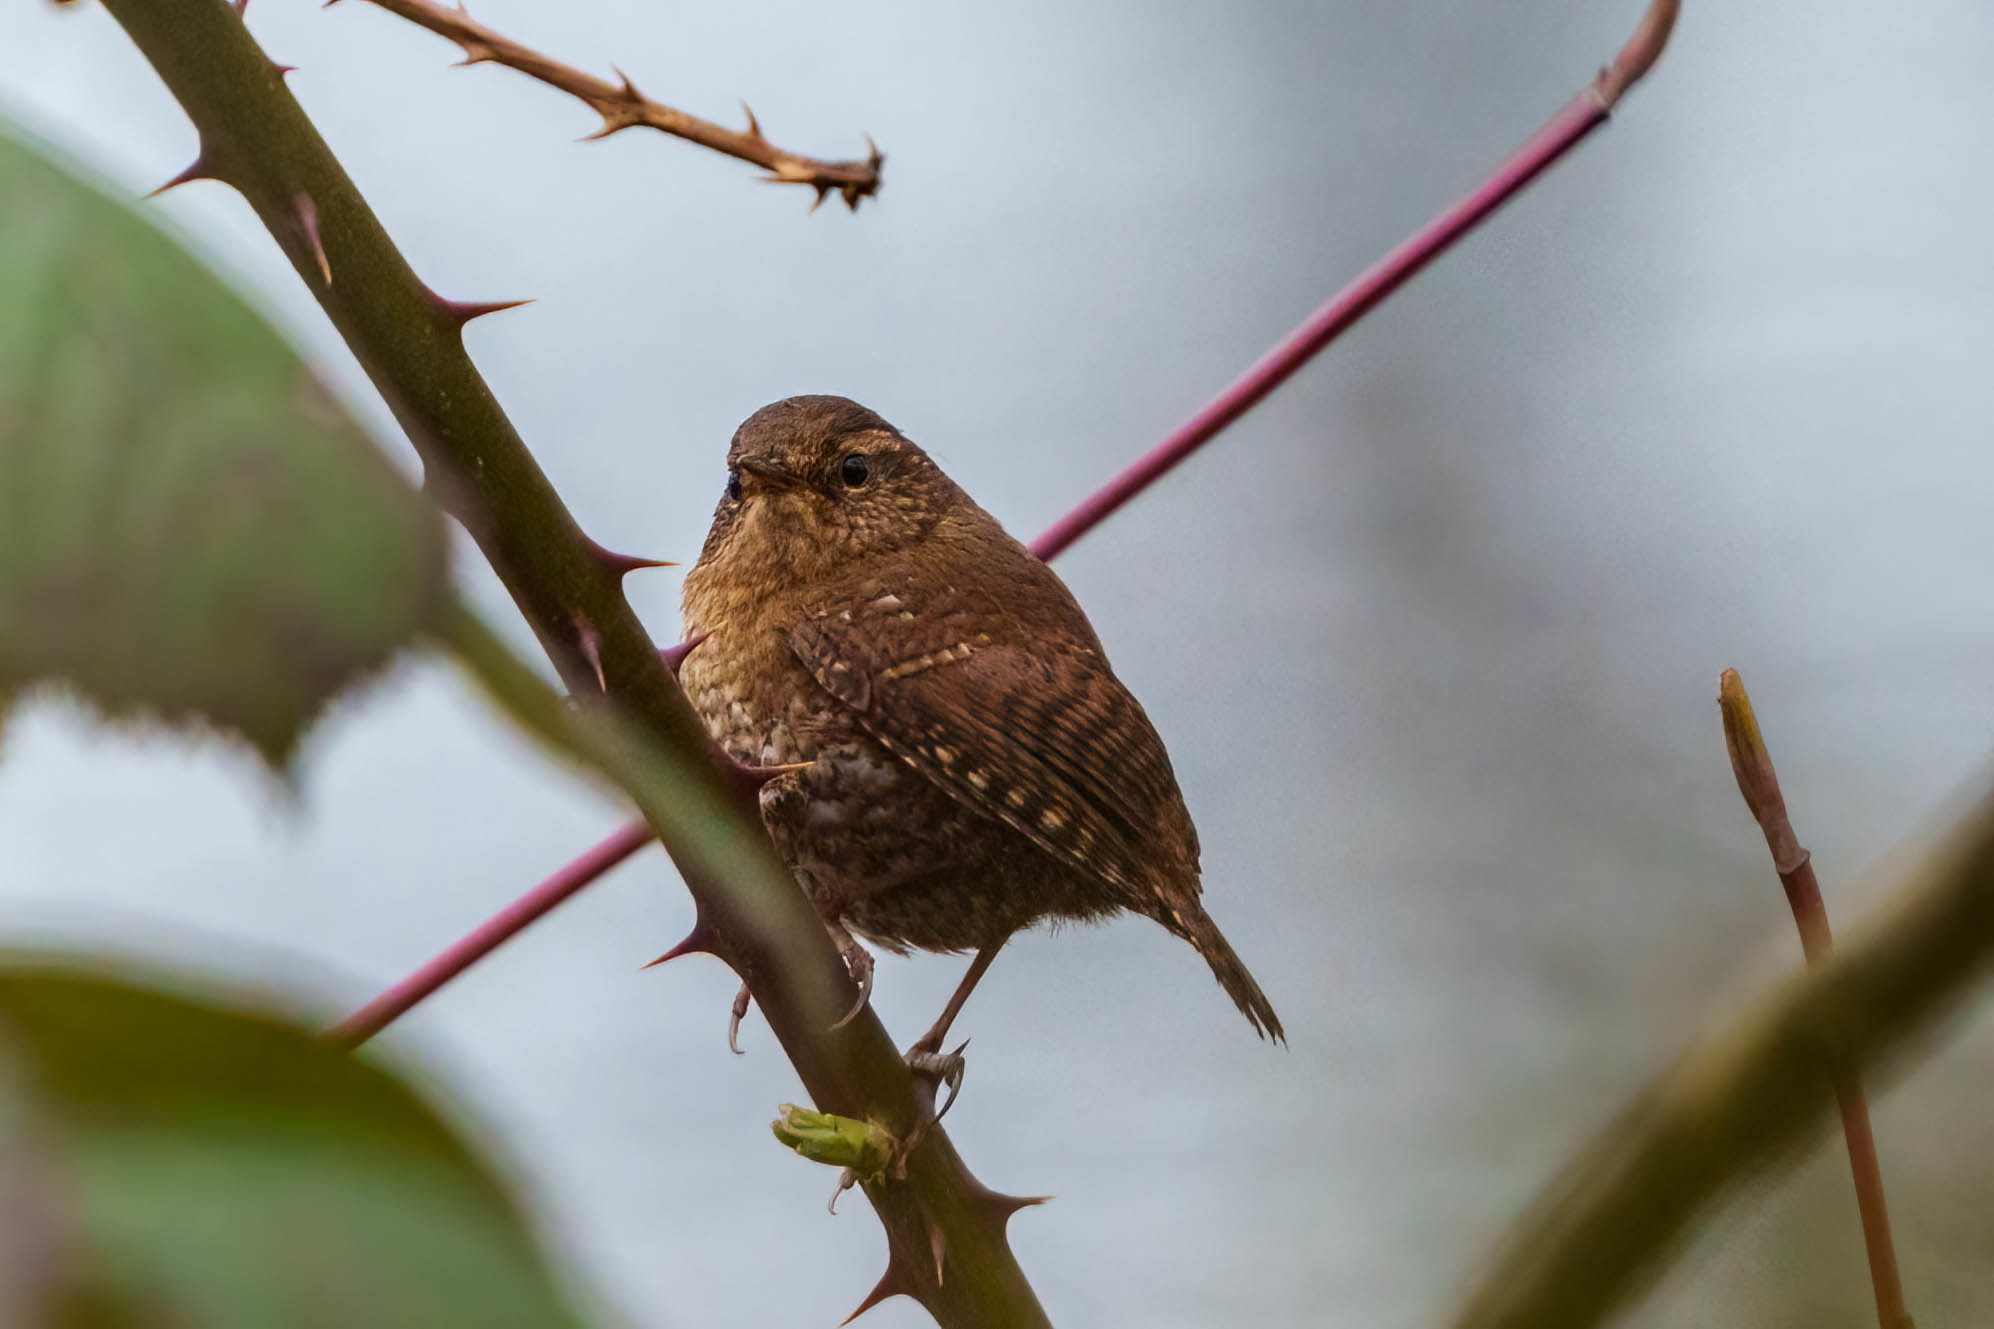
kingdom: Animalia
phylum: Chordata
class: Aves
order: Passeriformes
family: Troglodytidae
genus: Troglodytes
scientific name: Troglodytes pacificus
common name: Pacific wren
